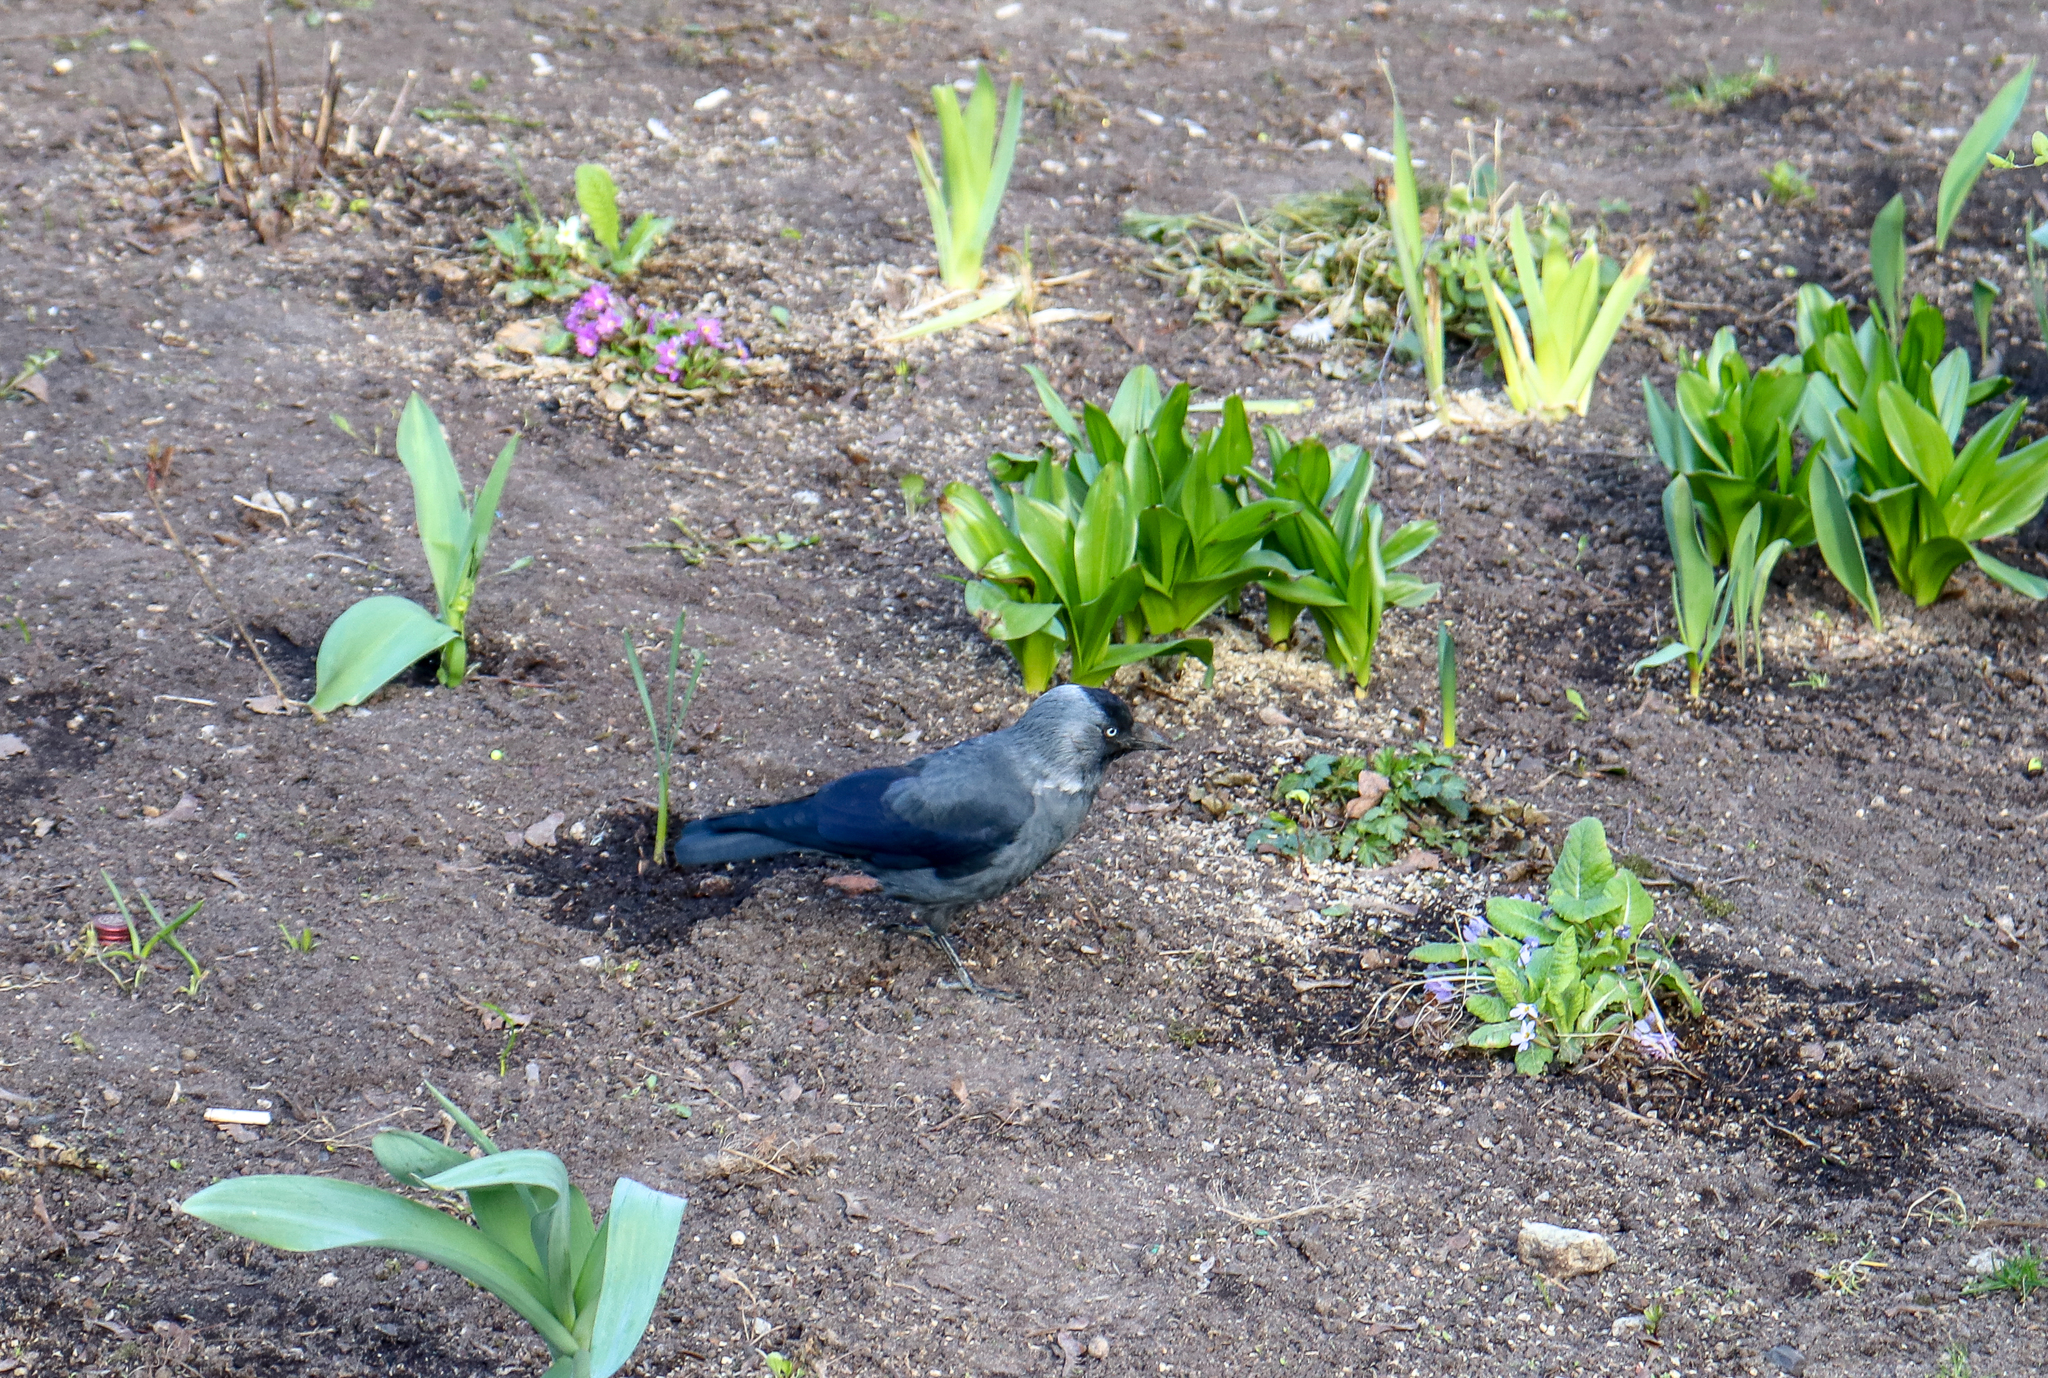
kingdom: Animalia
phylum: Chordata
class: Aves
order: Passeriformes
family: Corvidae
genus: Coloeus
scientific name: Coloeus monedula
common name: Western jackdaw
